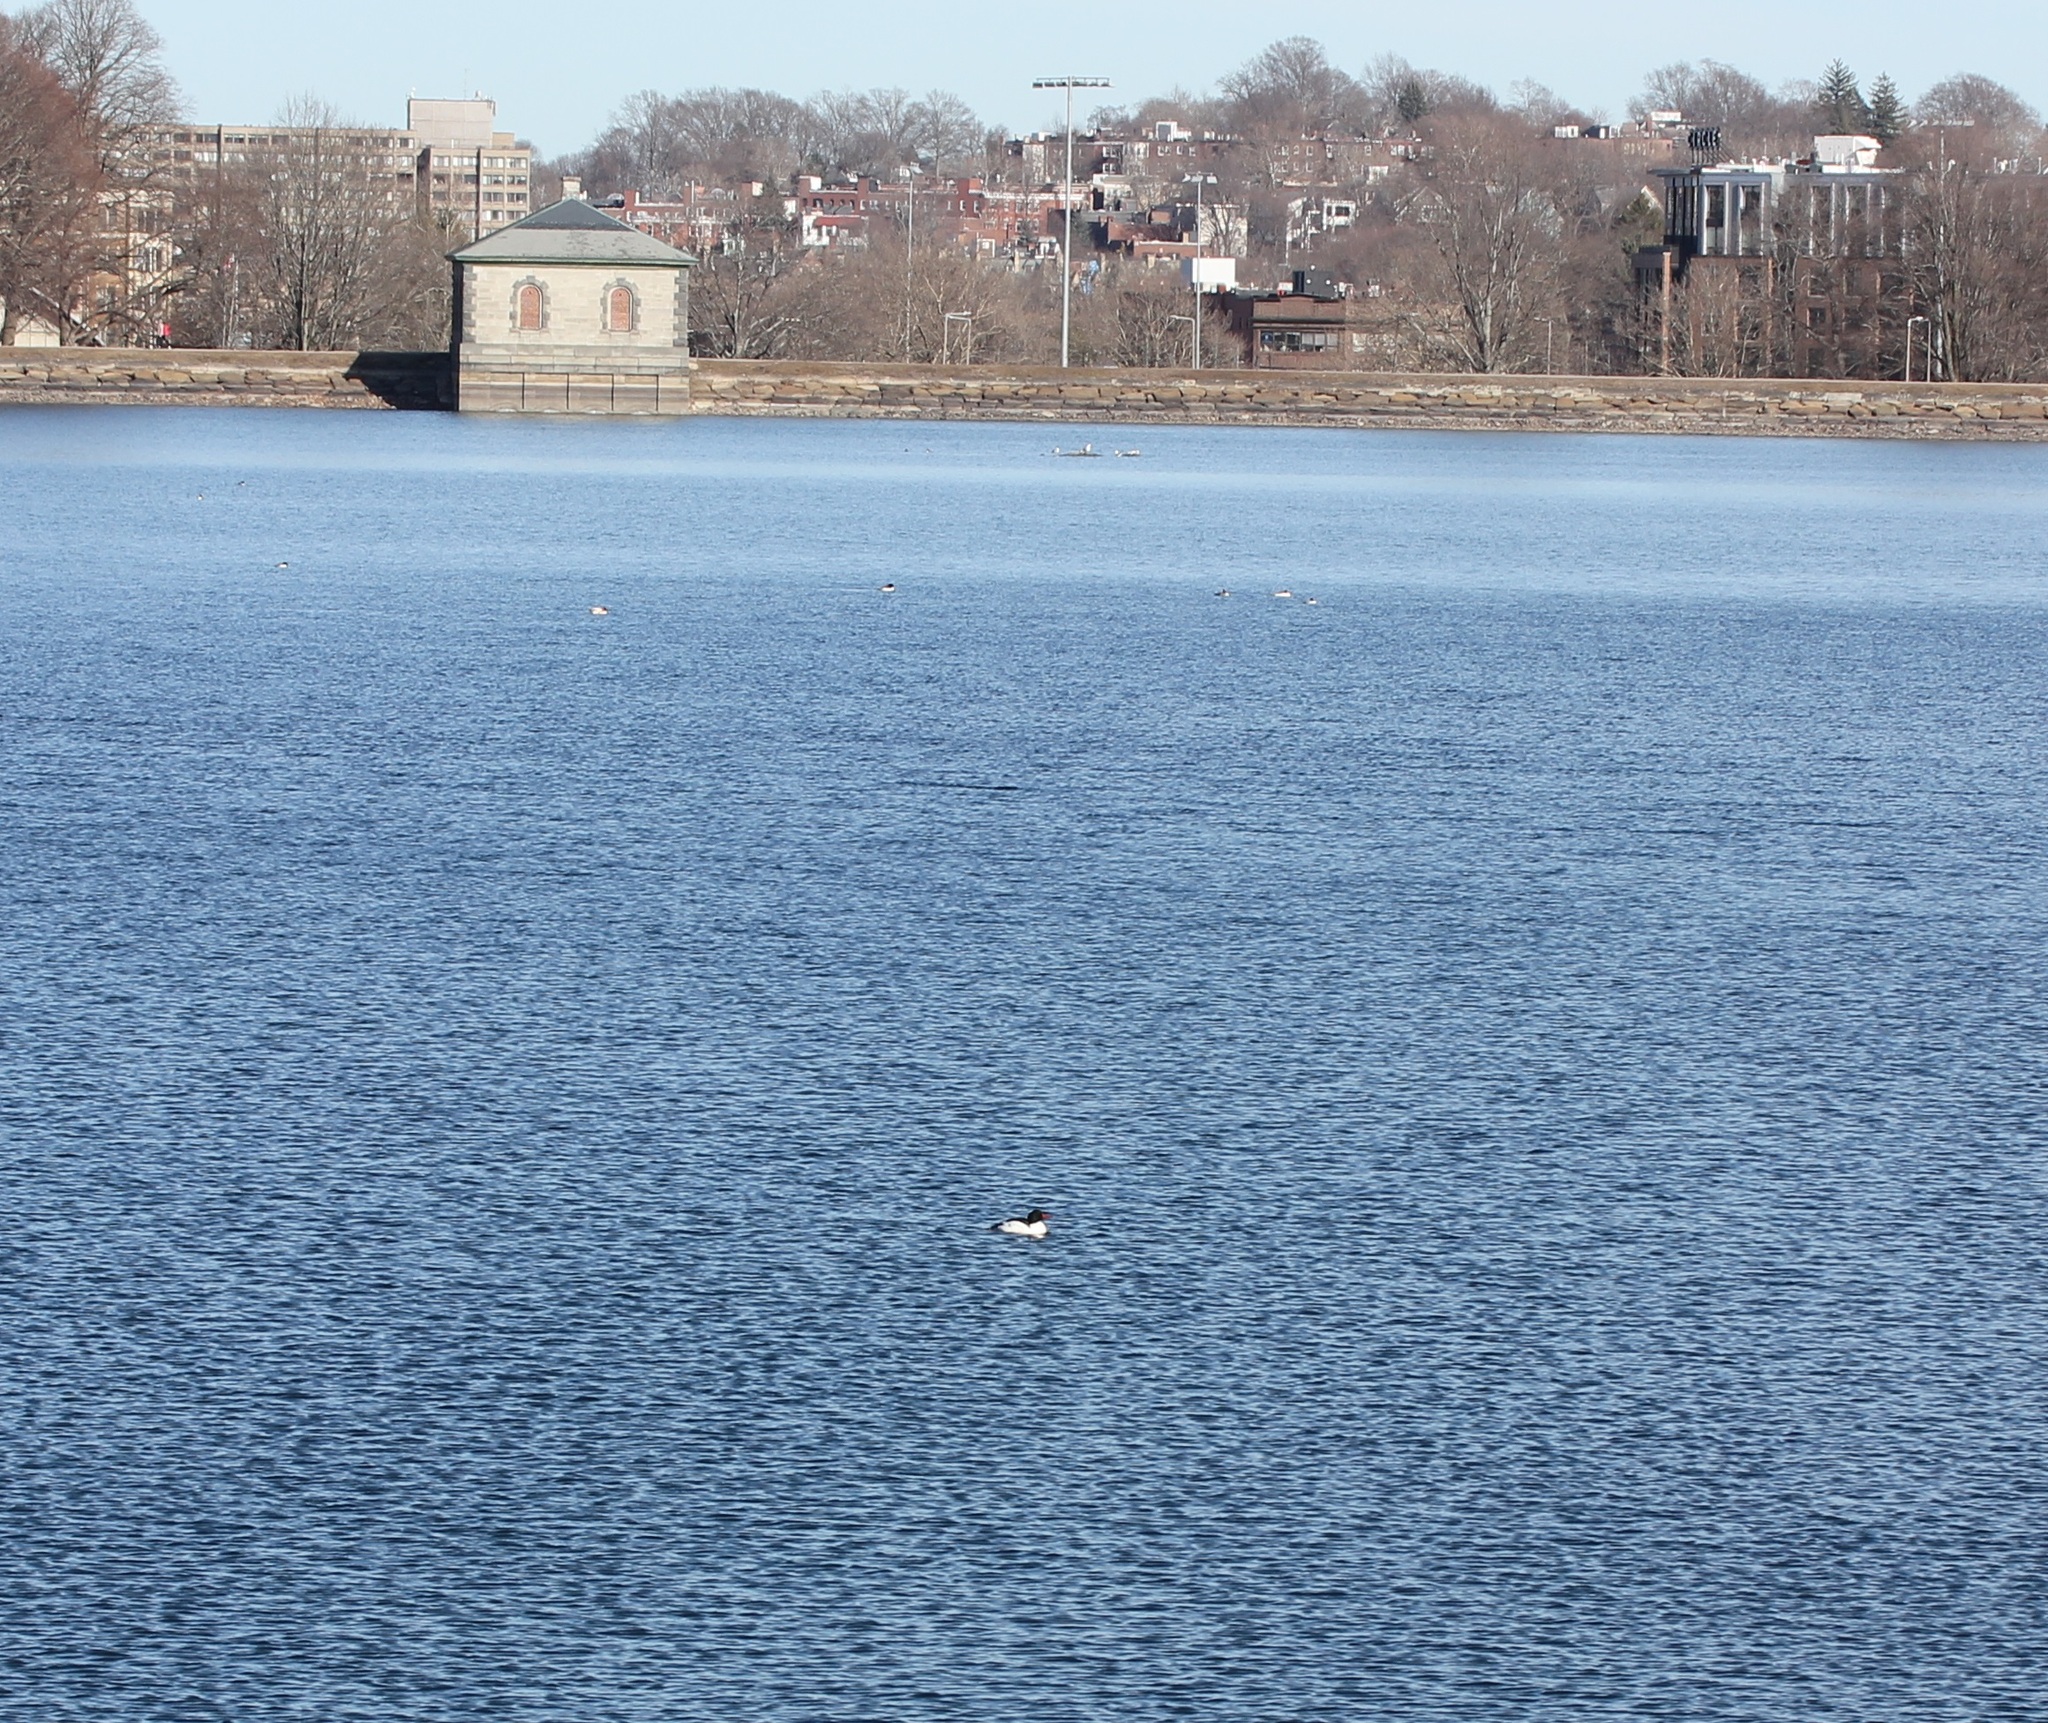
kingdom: Animalia
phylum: Chordata
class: Aves
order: Anseriformes
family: Anatidae
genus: Mergus
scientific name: Mergus merganser
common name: Common merganser
